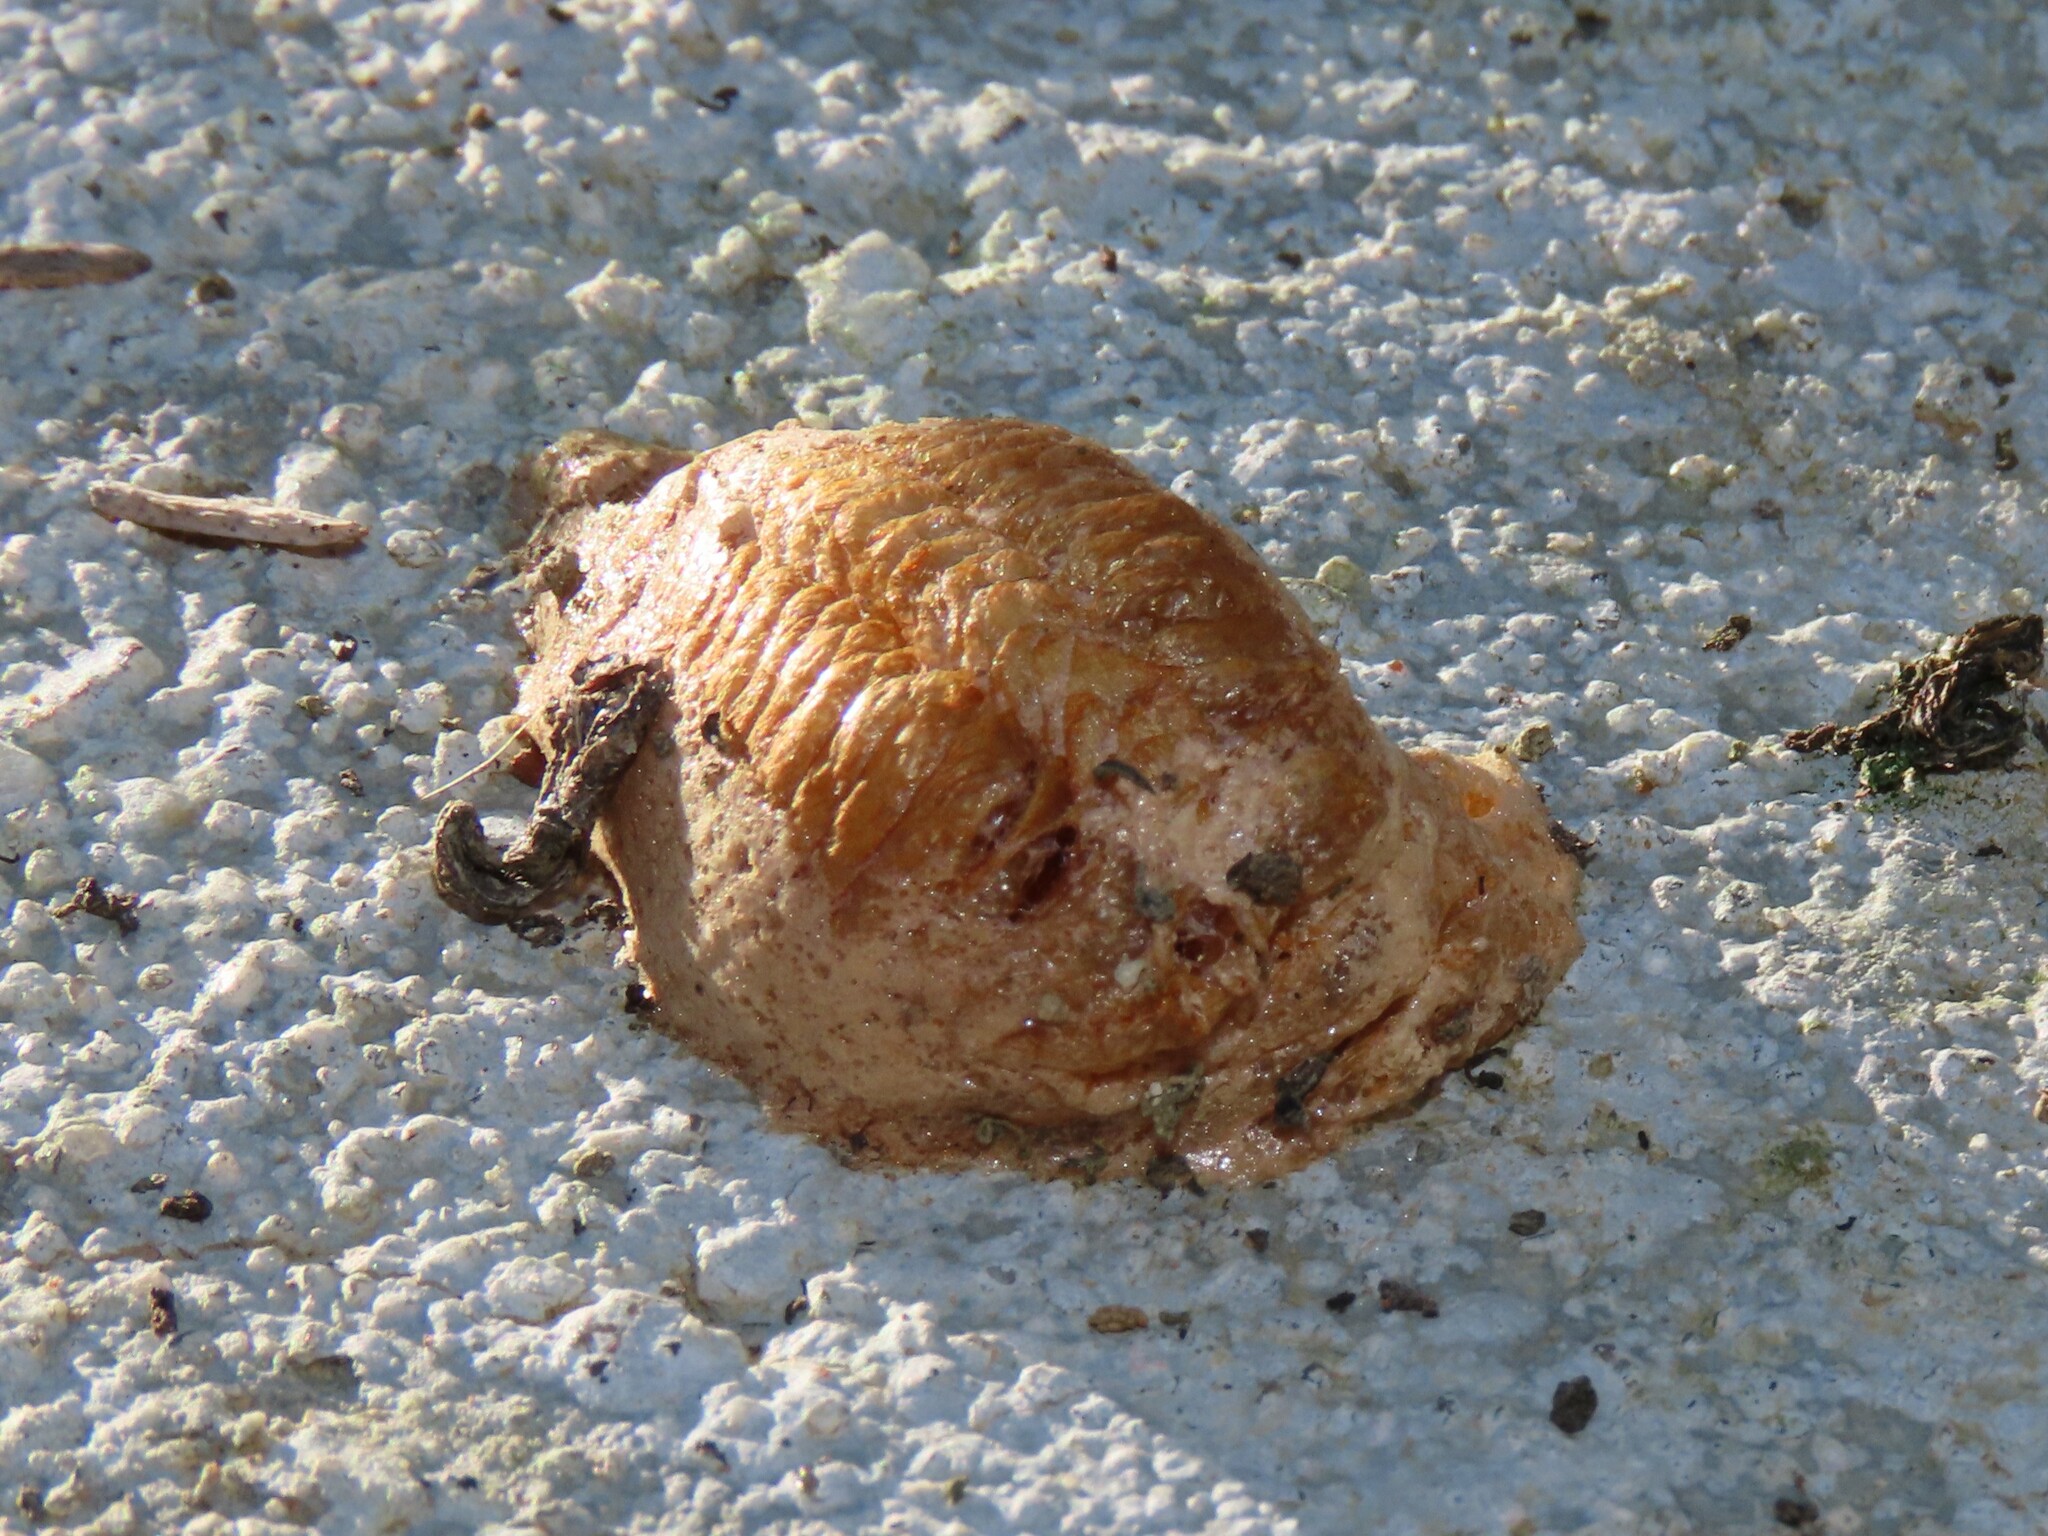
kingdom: Animalia
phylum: Arthropoda
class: Insecta
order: Mantodea
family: Mantidae
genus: Mantis
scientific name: Mantis religiosa
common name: Praying mantis
